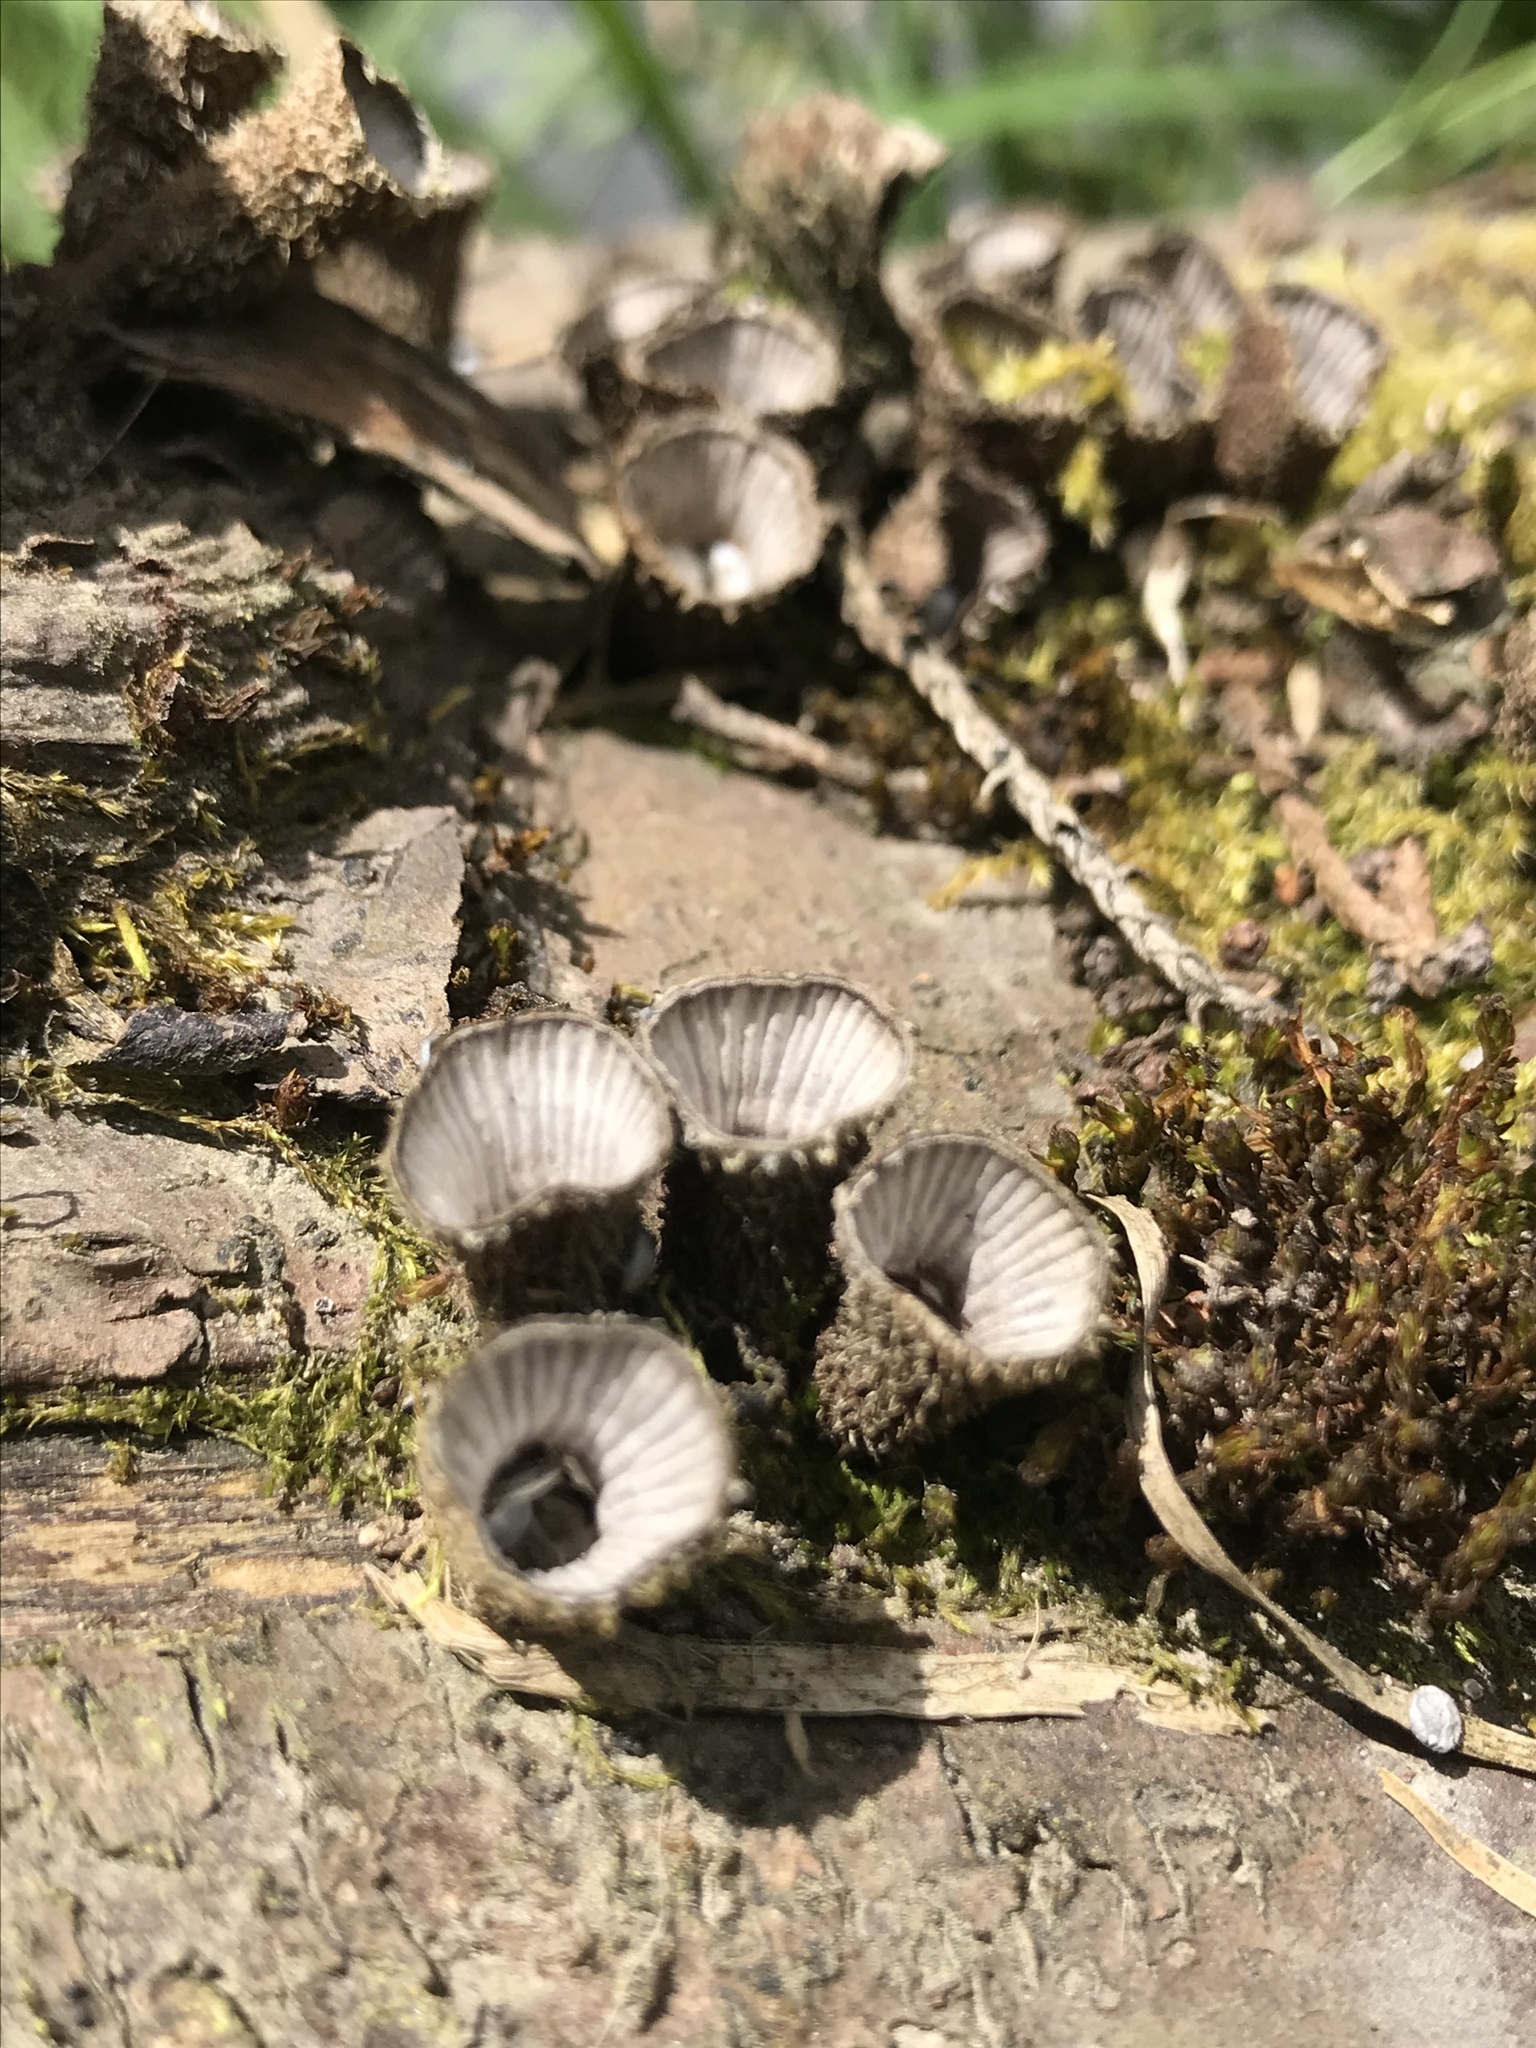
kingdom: Fungi
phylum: Basidiomycota
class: Agaricomycetes
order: Agaricales
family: Agaricaceae
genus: Cyathus
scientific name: Cyathus striatus
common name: Fluted bird's nest
